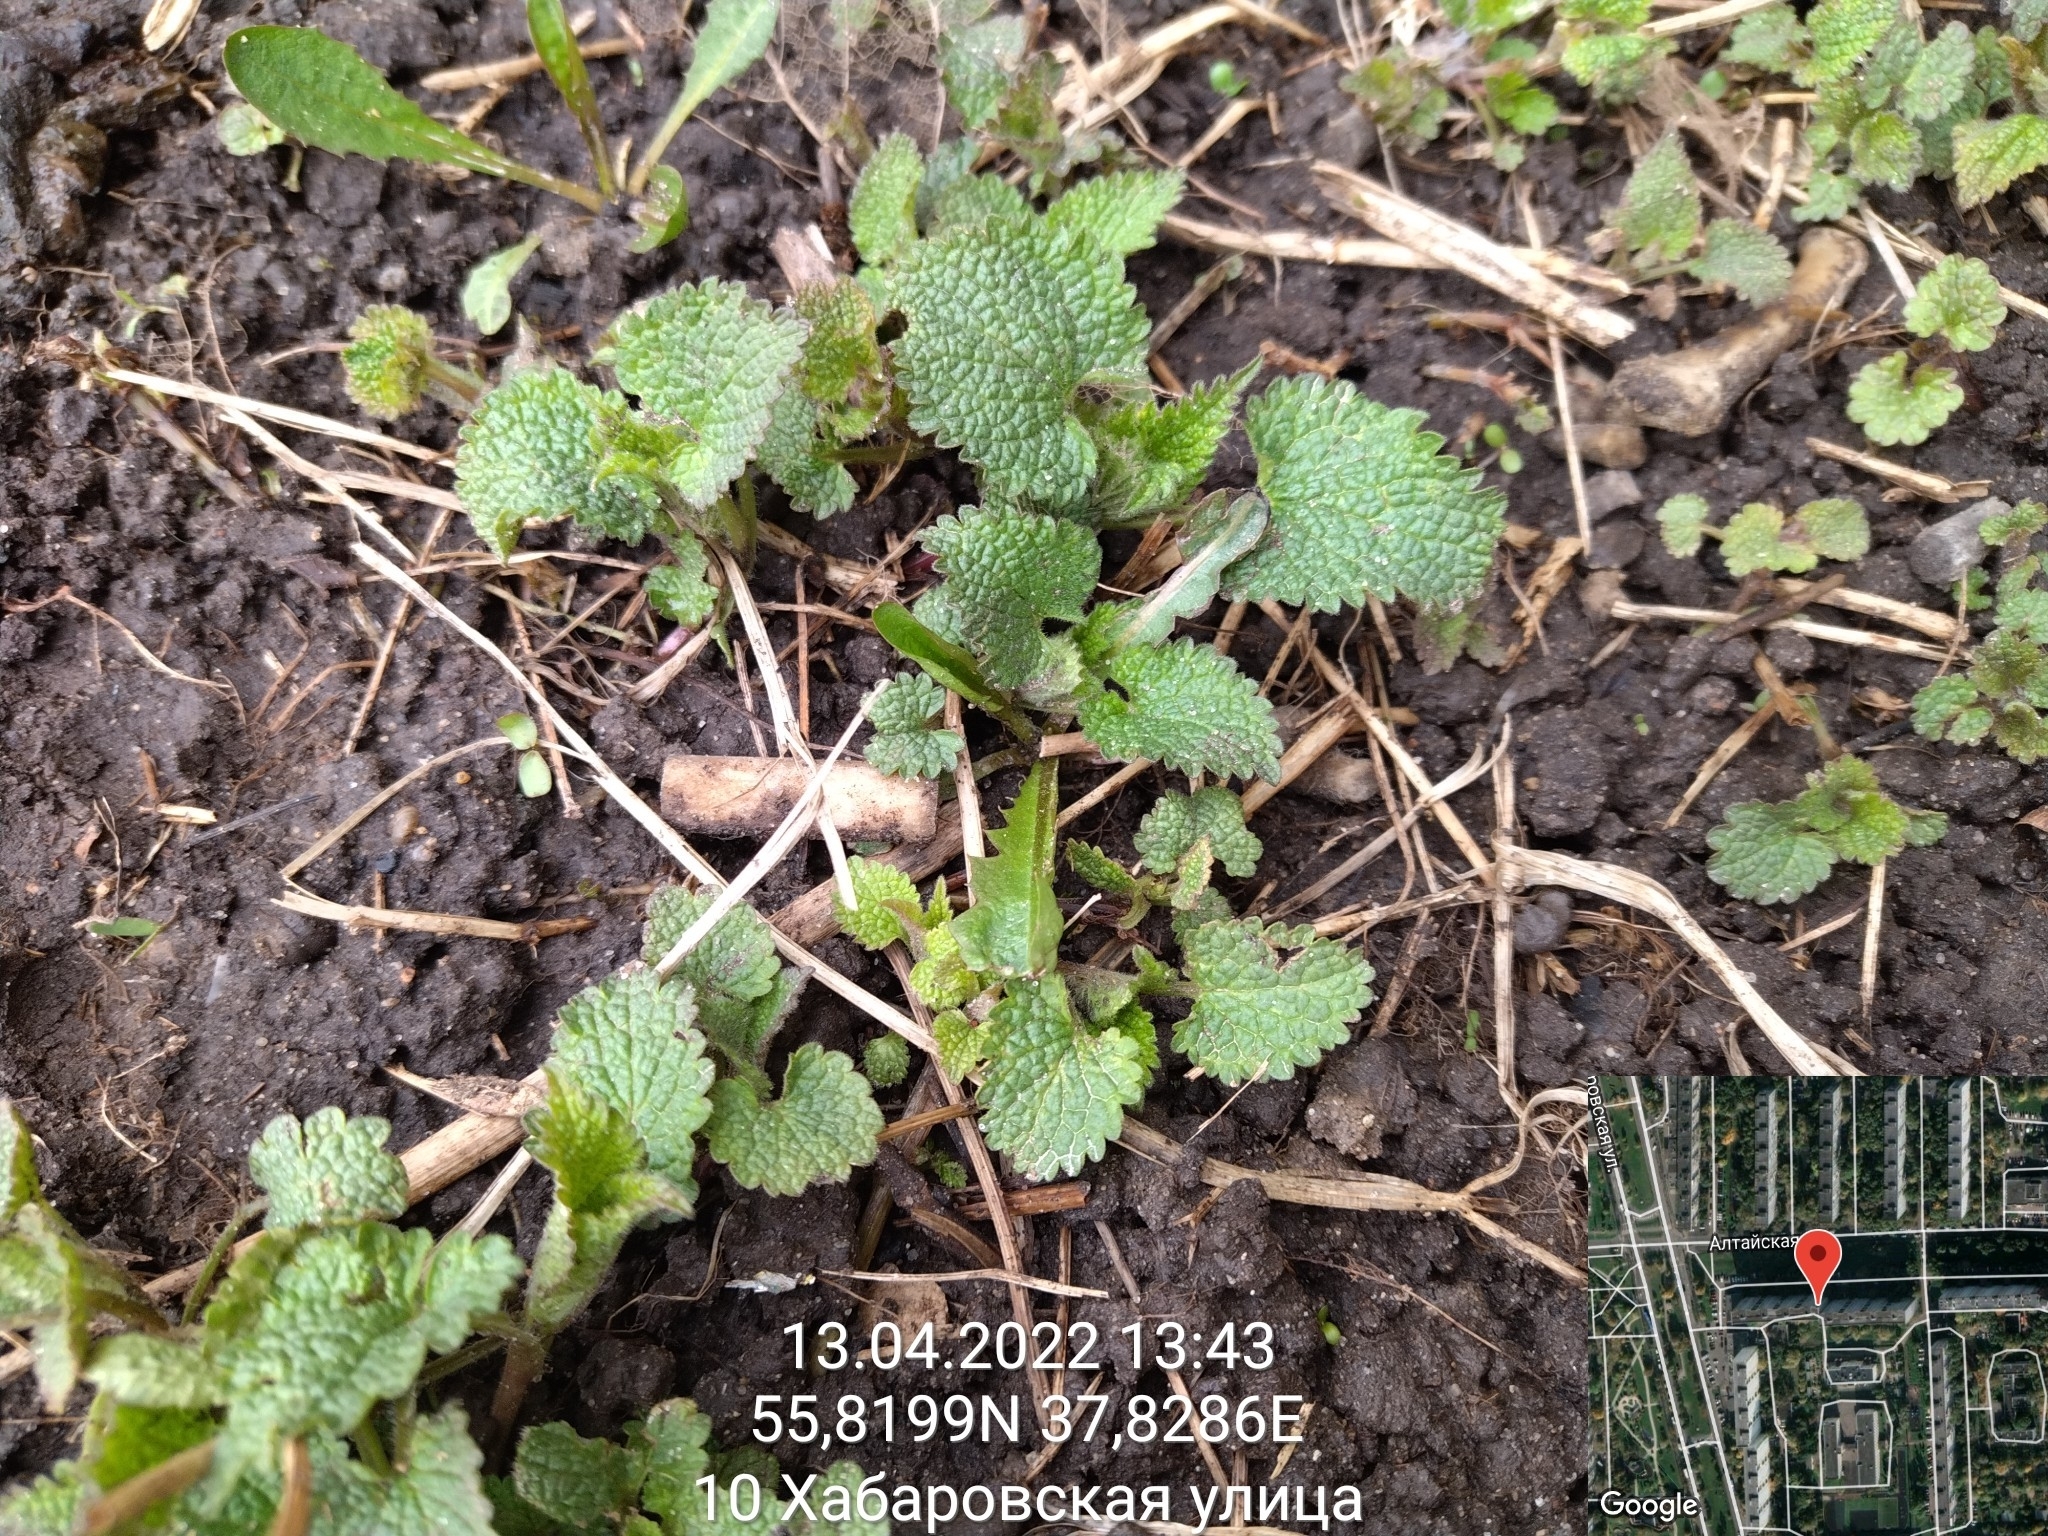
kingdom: Plantae
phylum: Tracheophyta
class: Magnoliopsida
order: Lamiales
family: Lamiaceae
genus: Lamium
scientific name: Lamium album
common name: White dead-nettle
